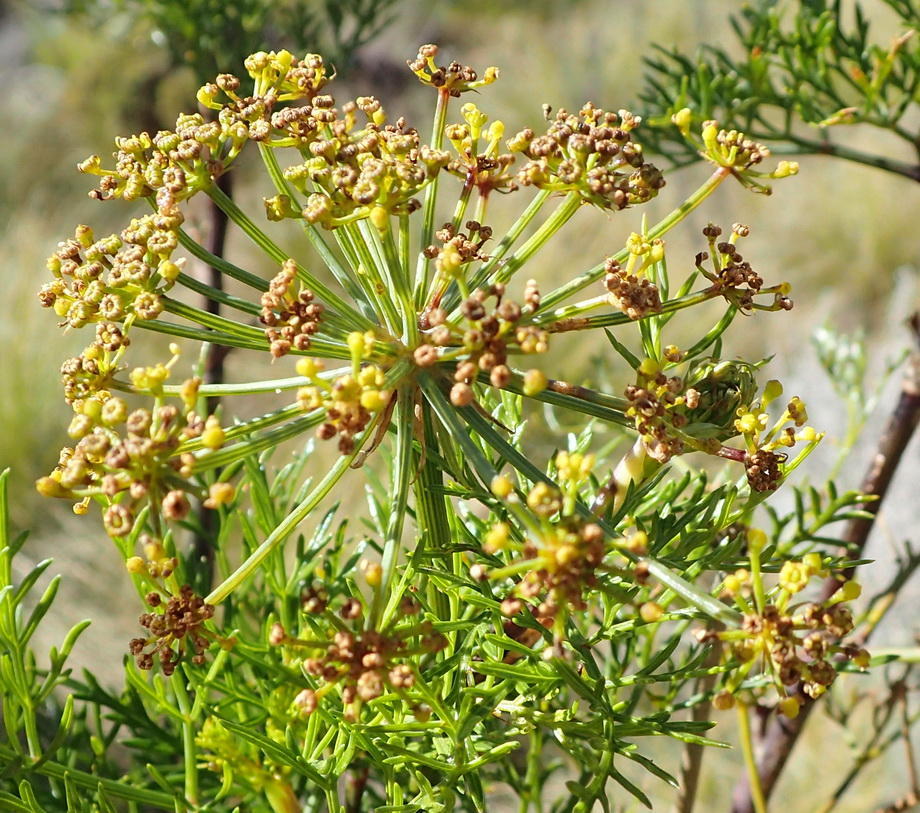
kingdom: Plantae
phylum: Tracheophyta
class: Magnoliopsida
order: Apiales
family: Apiaceae
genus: Notobubon
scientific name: Notobubon tenuifolium
